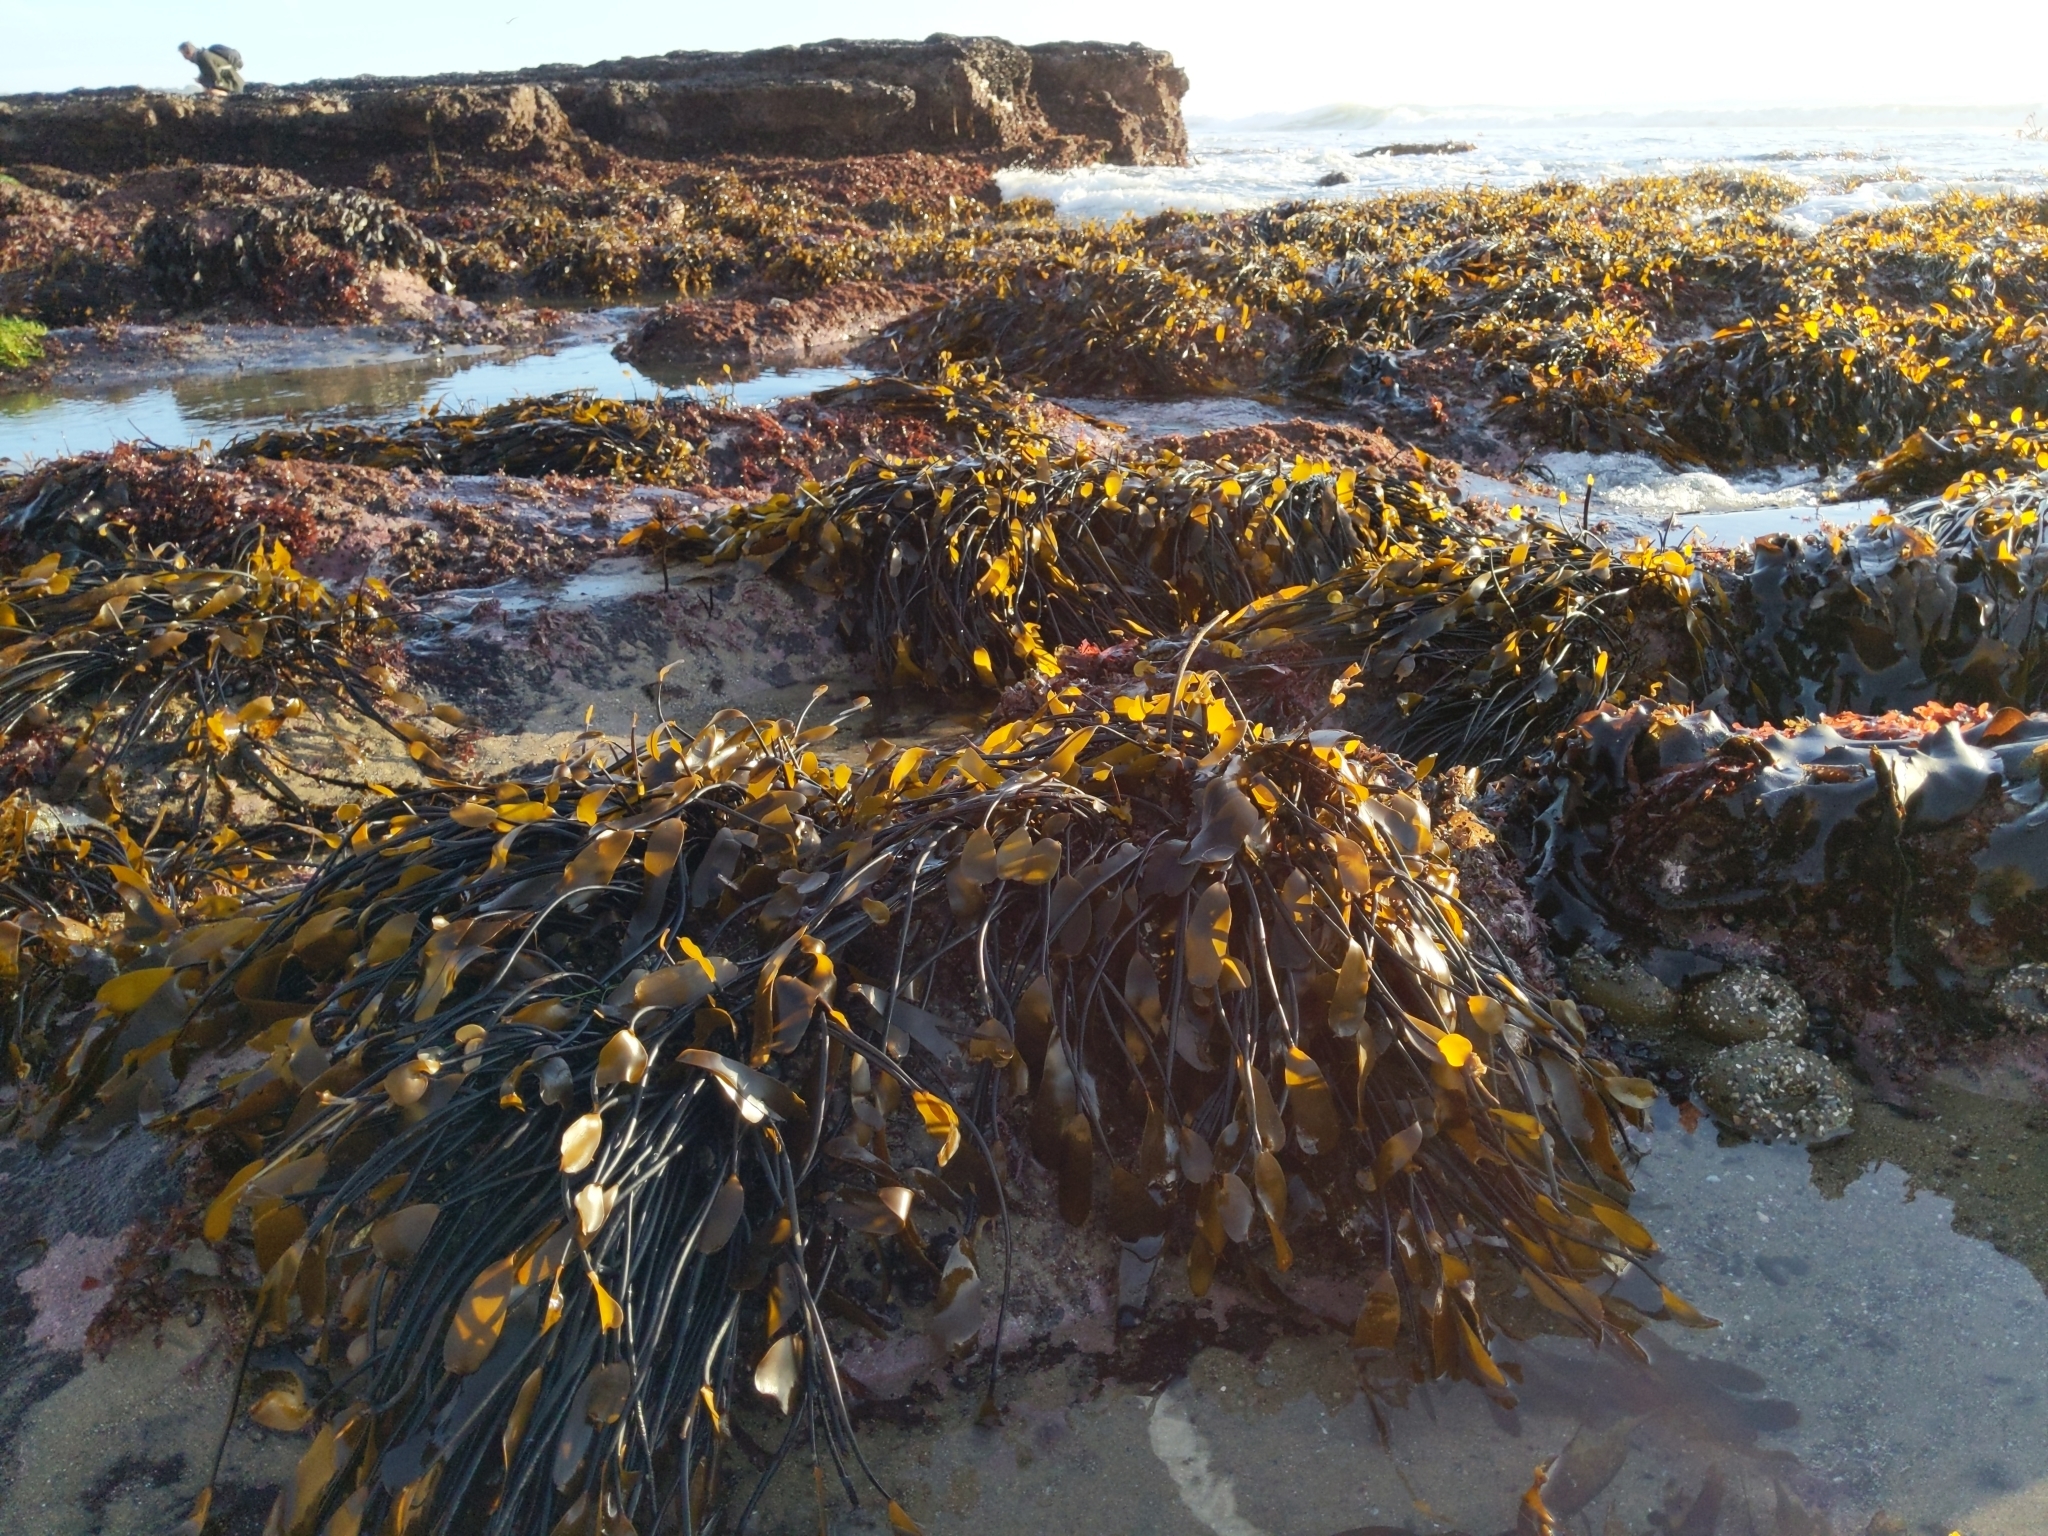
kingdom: Chromista
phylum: Ochrophyta
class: Phaeophyceae
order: Laminariales
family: Laminariaceae
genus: Laminaria
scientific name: Laminaria sinclairii
